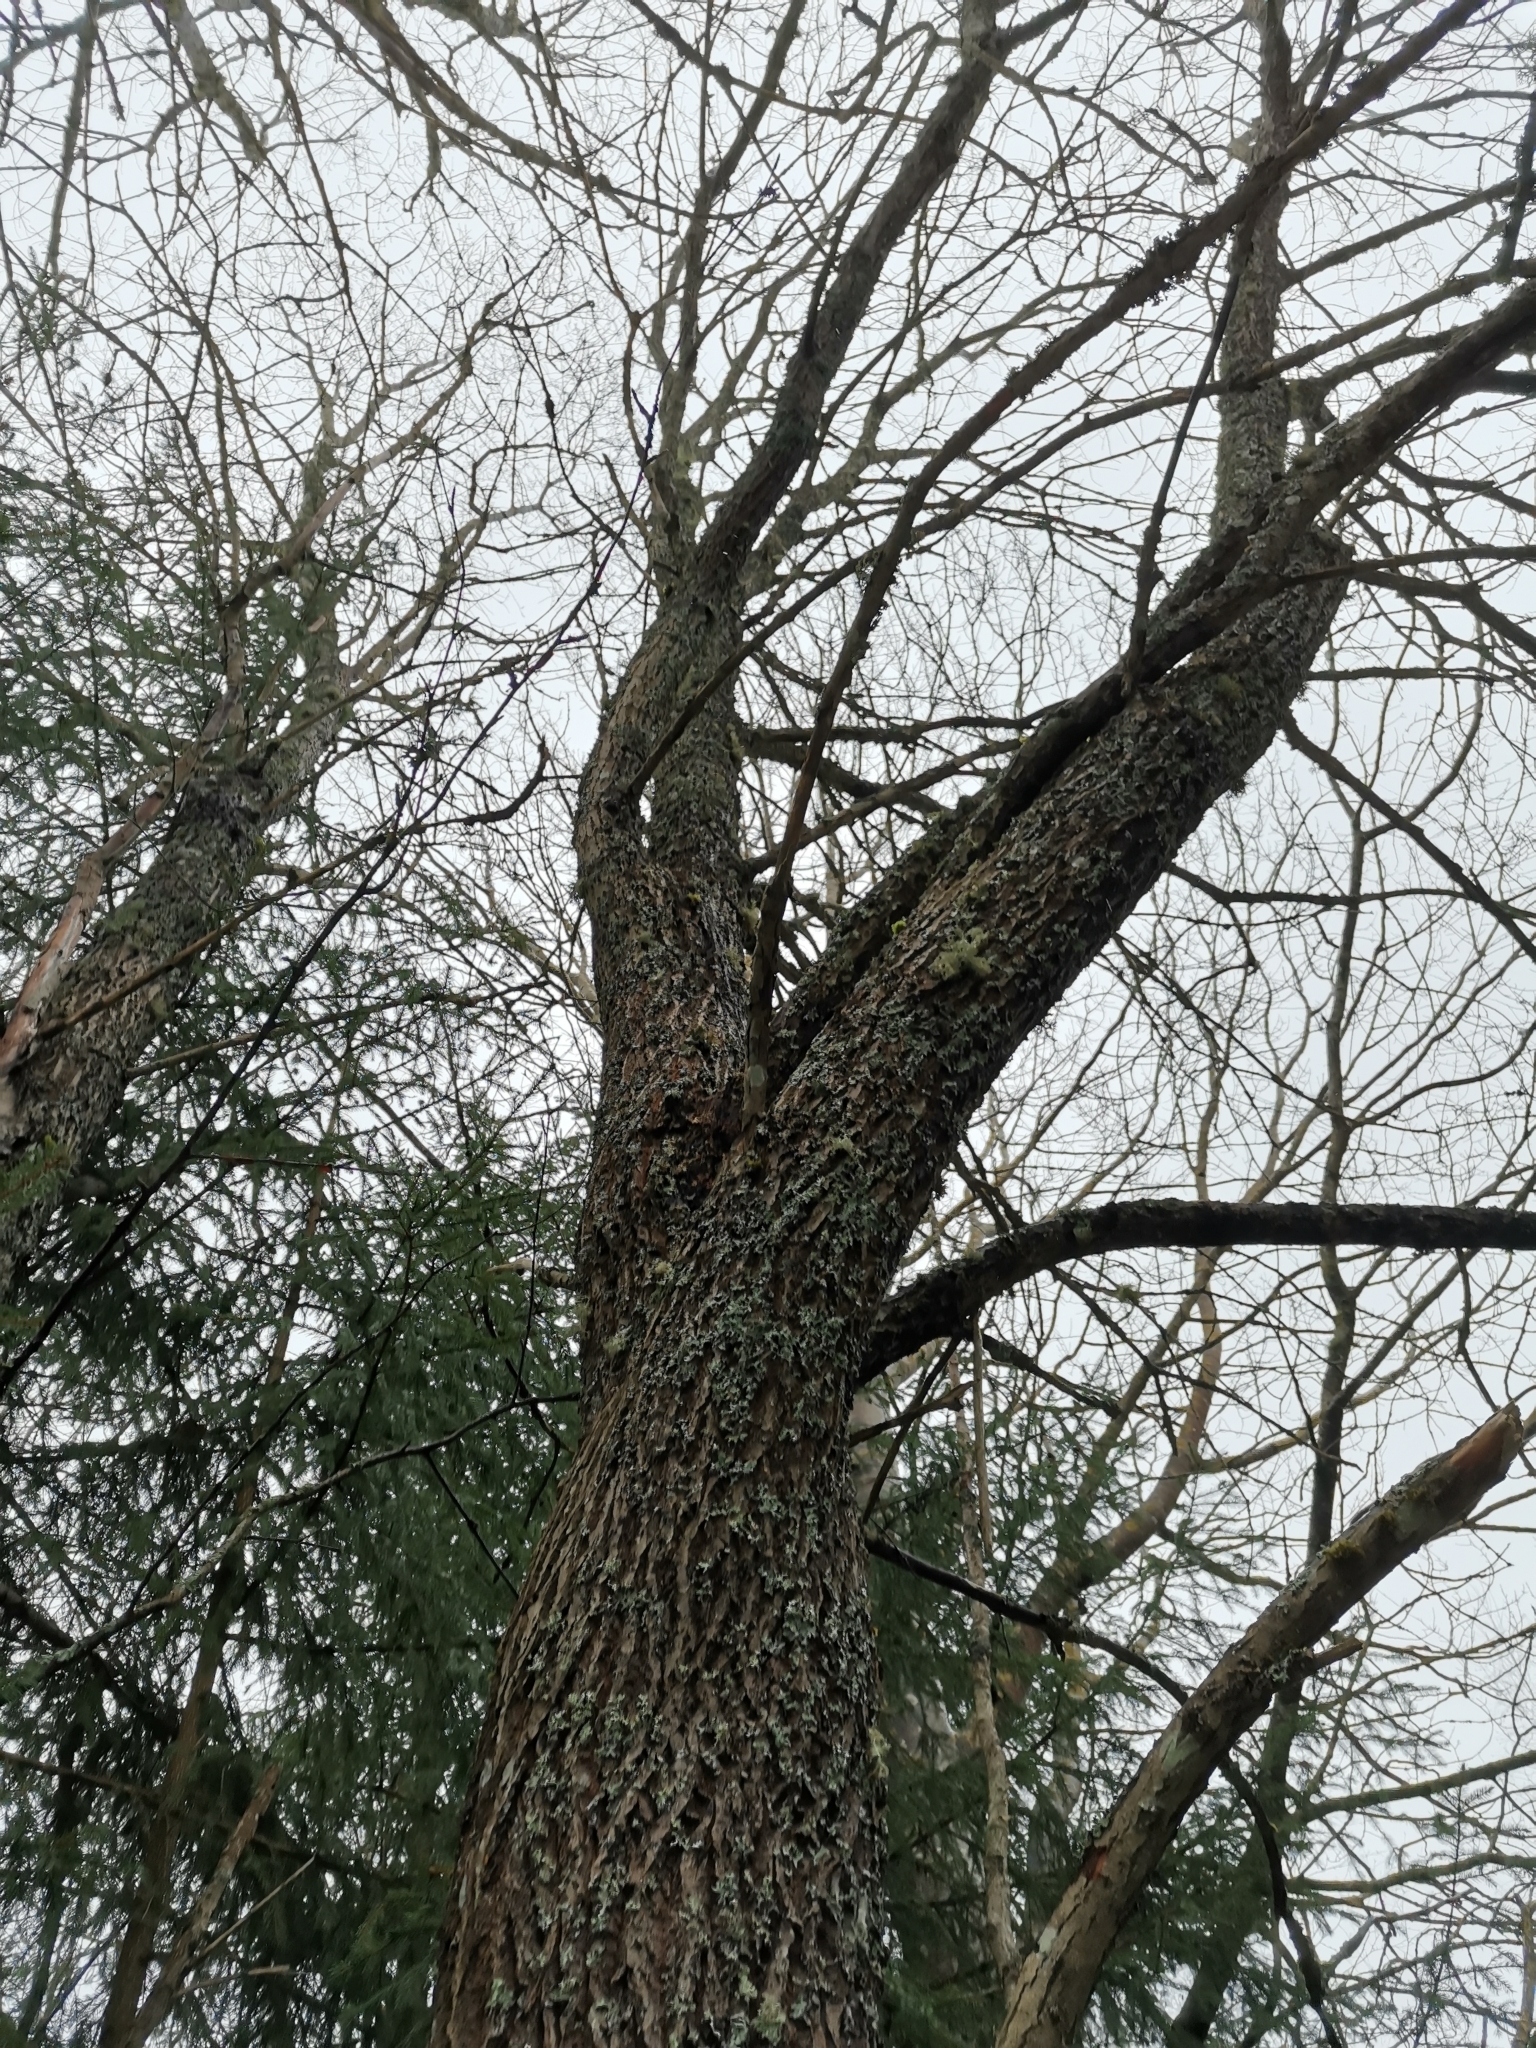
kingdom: Animalia
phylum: Chordata
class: Mammalia
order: Rodentia
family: Sciuridae
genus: Pteromys
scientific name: Pteromys volans
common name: Siberian flying squirrel
